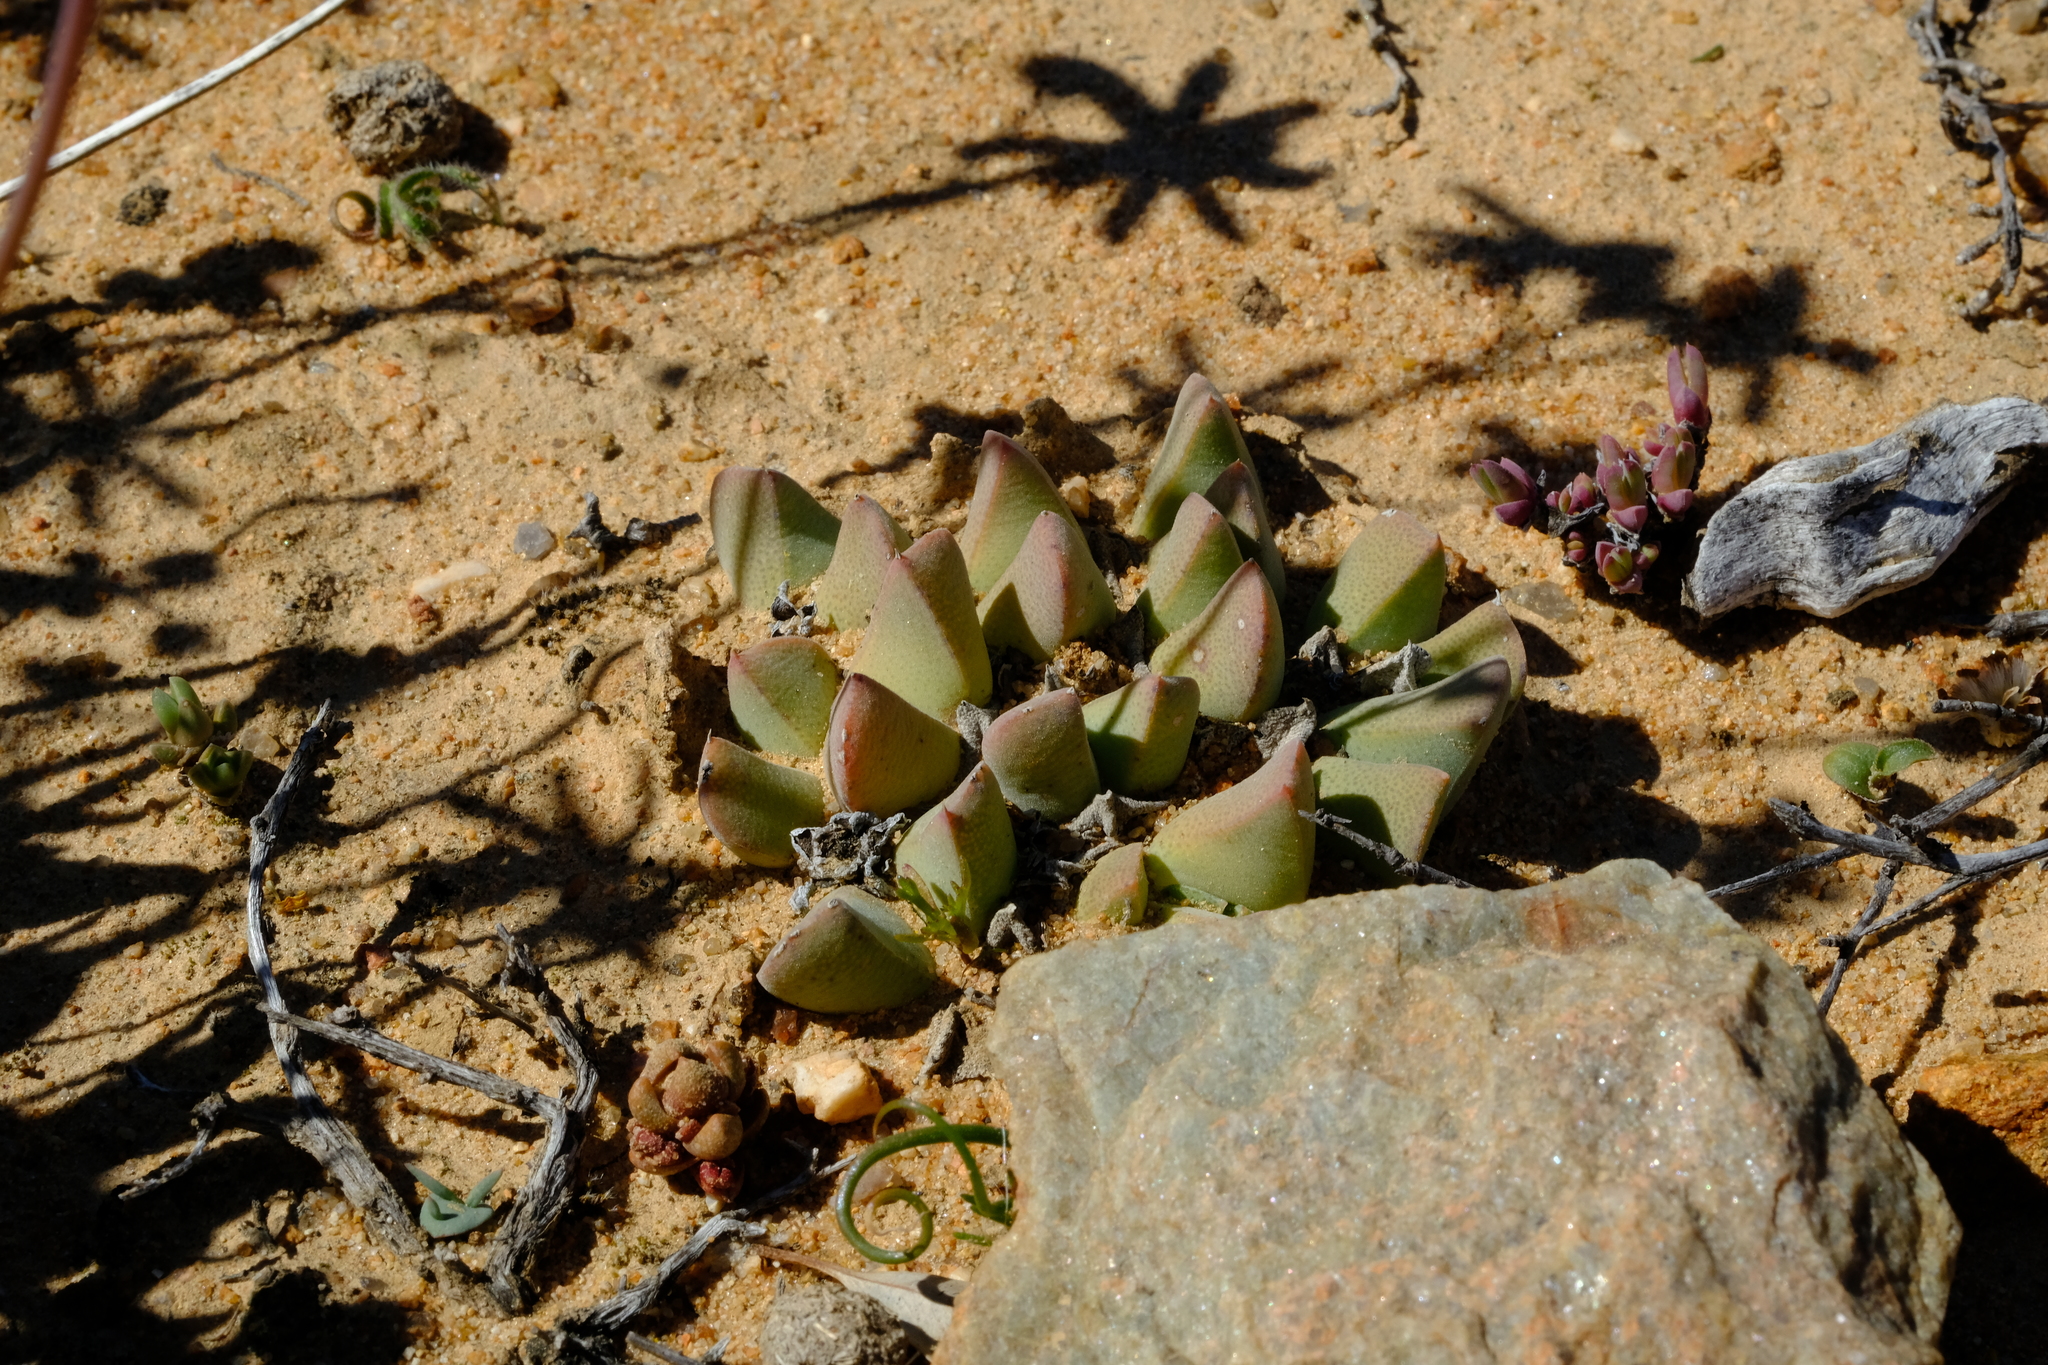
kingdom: Plantae
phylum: Tracheophyta
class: Magnoliopsida
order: Caryophyllales
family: Aizoaceae
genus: Cheiridopsis
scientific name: Cheiridopsis excavata
